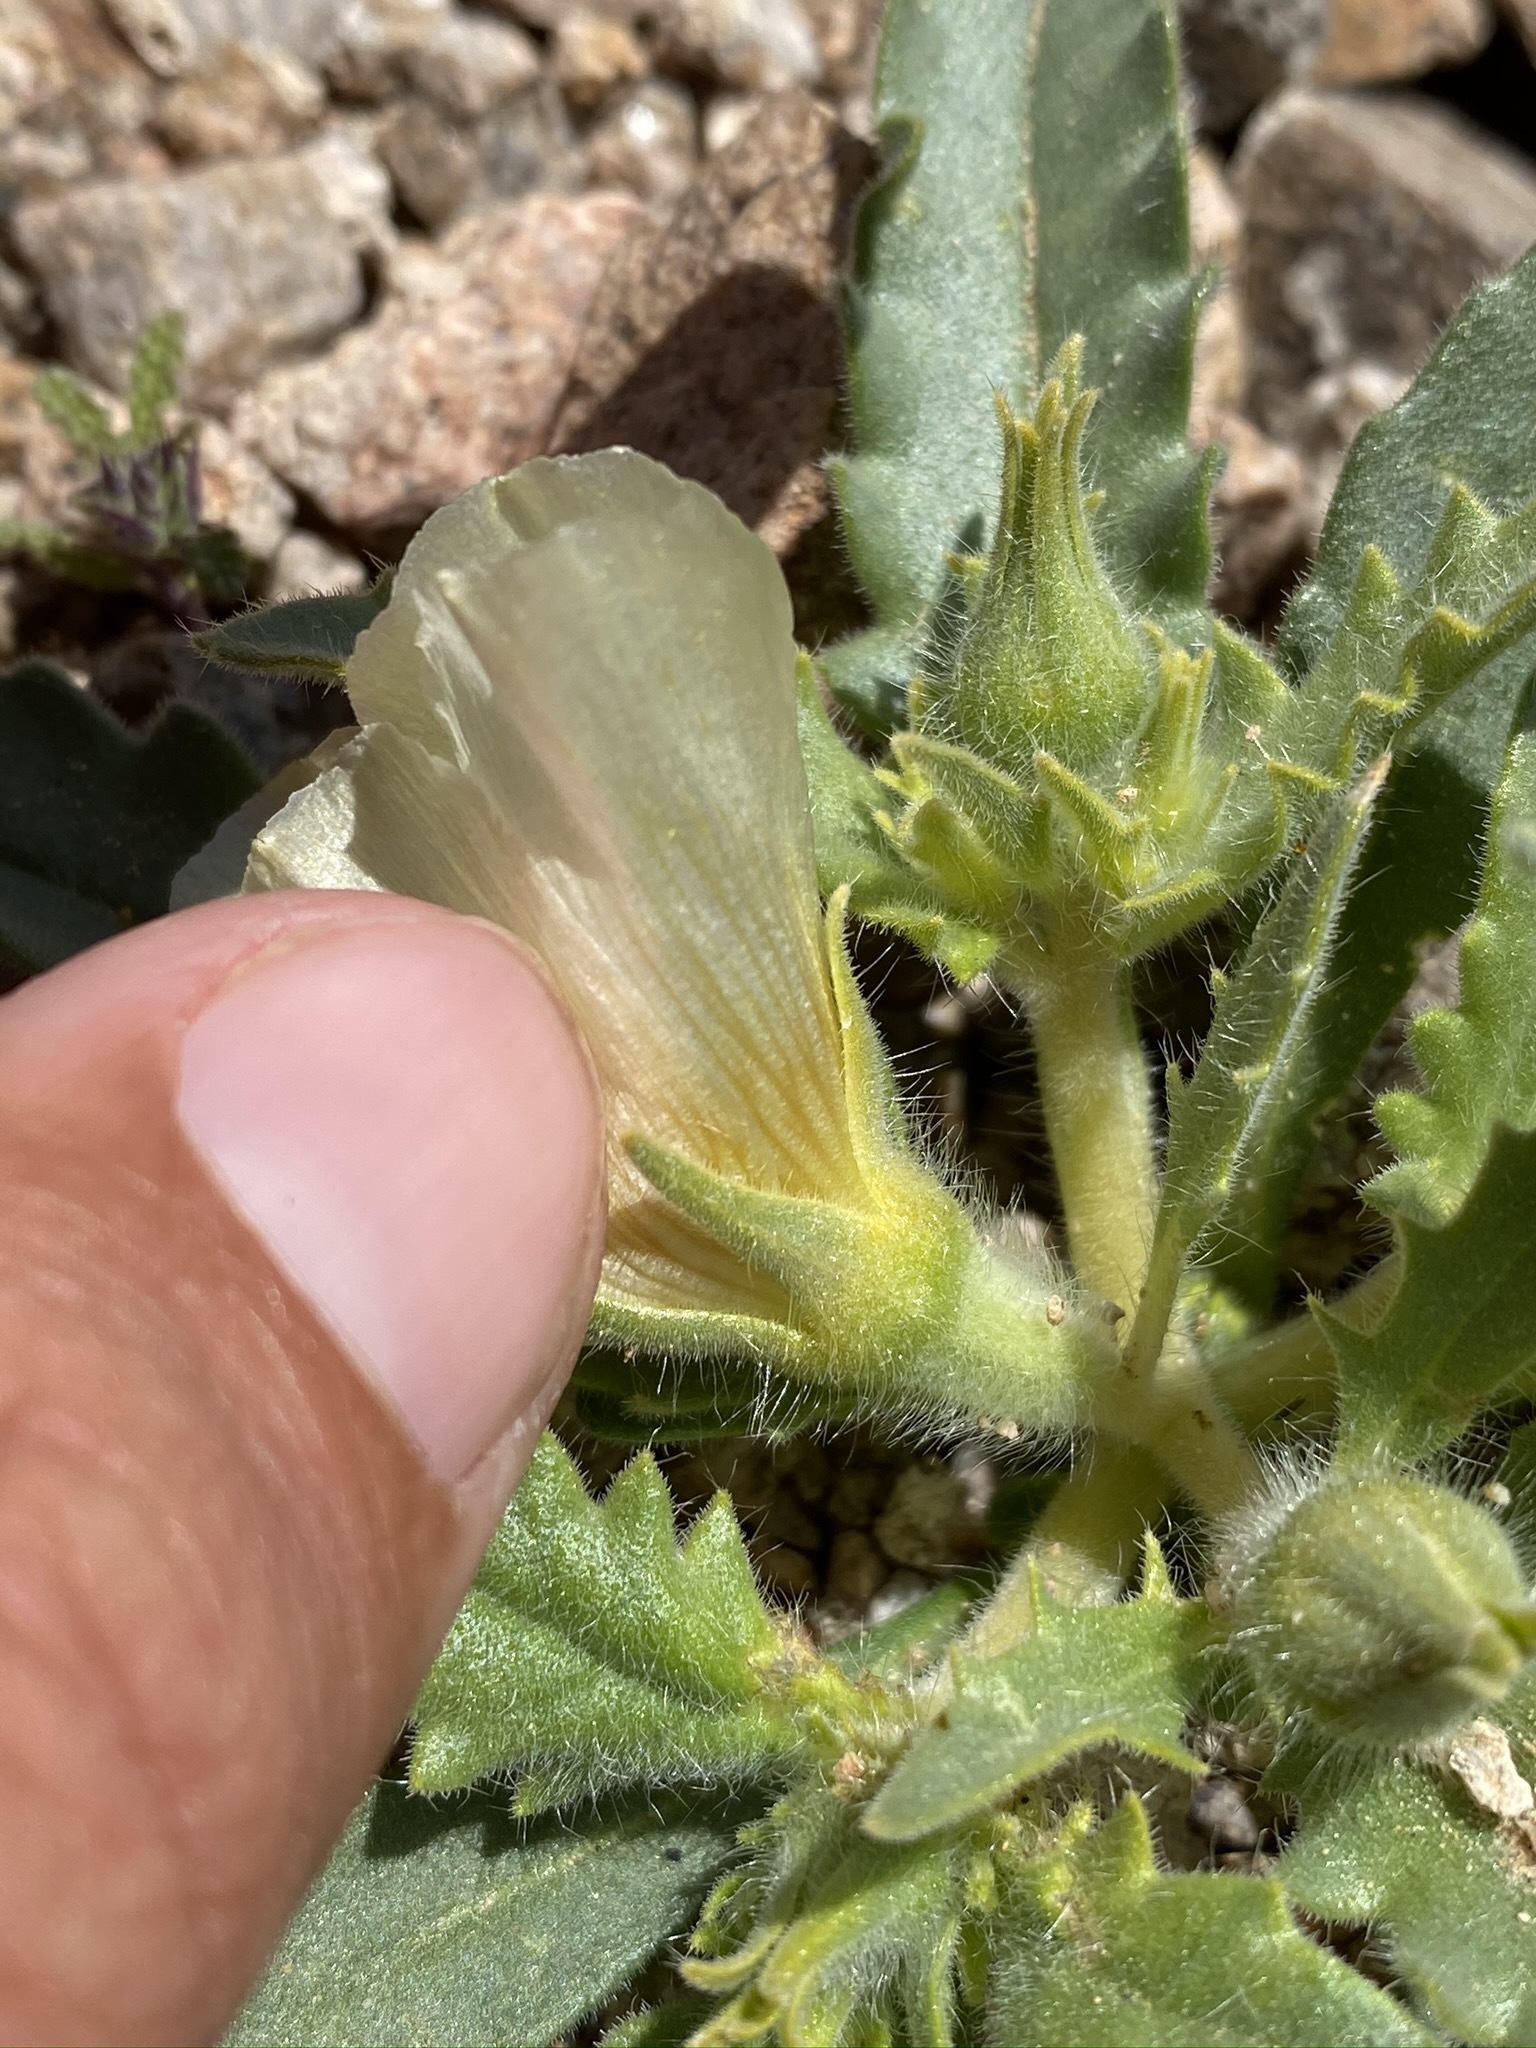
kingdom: Plantae
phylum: Tracheophyta
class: Magnoliopsida
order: Cornales
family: Loasaceae
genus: Mentzelia
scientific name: Mentzelia tridentata
